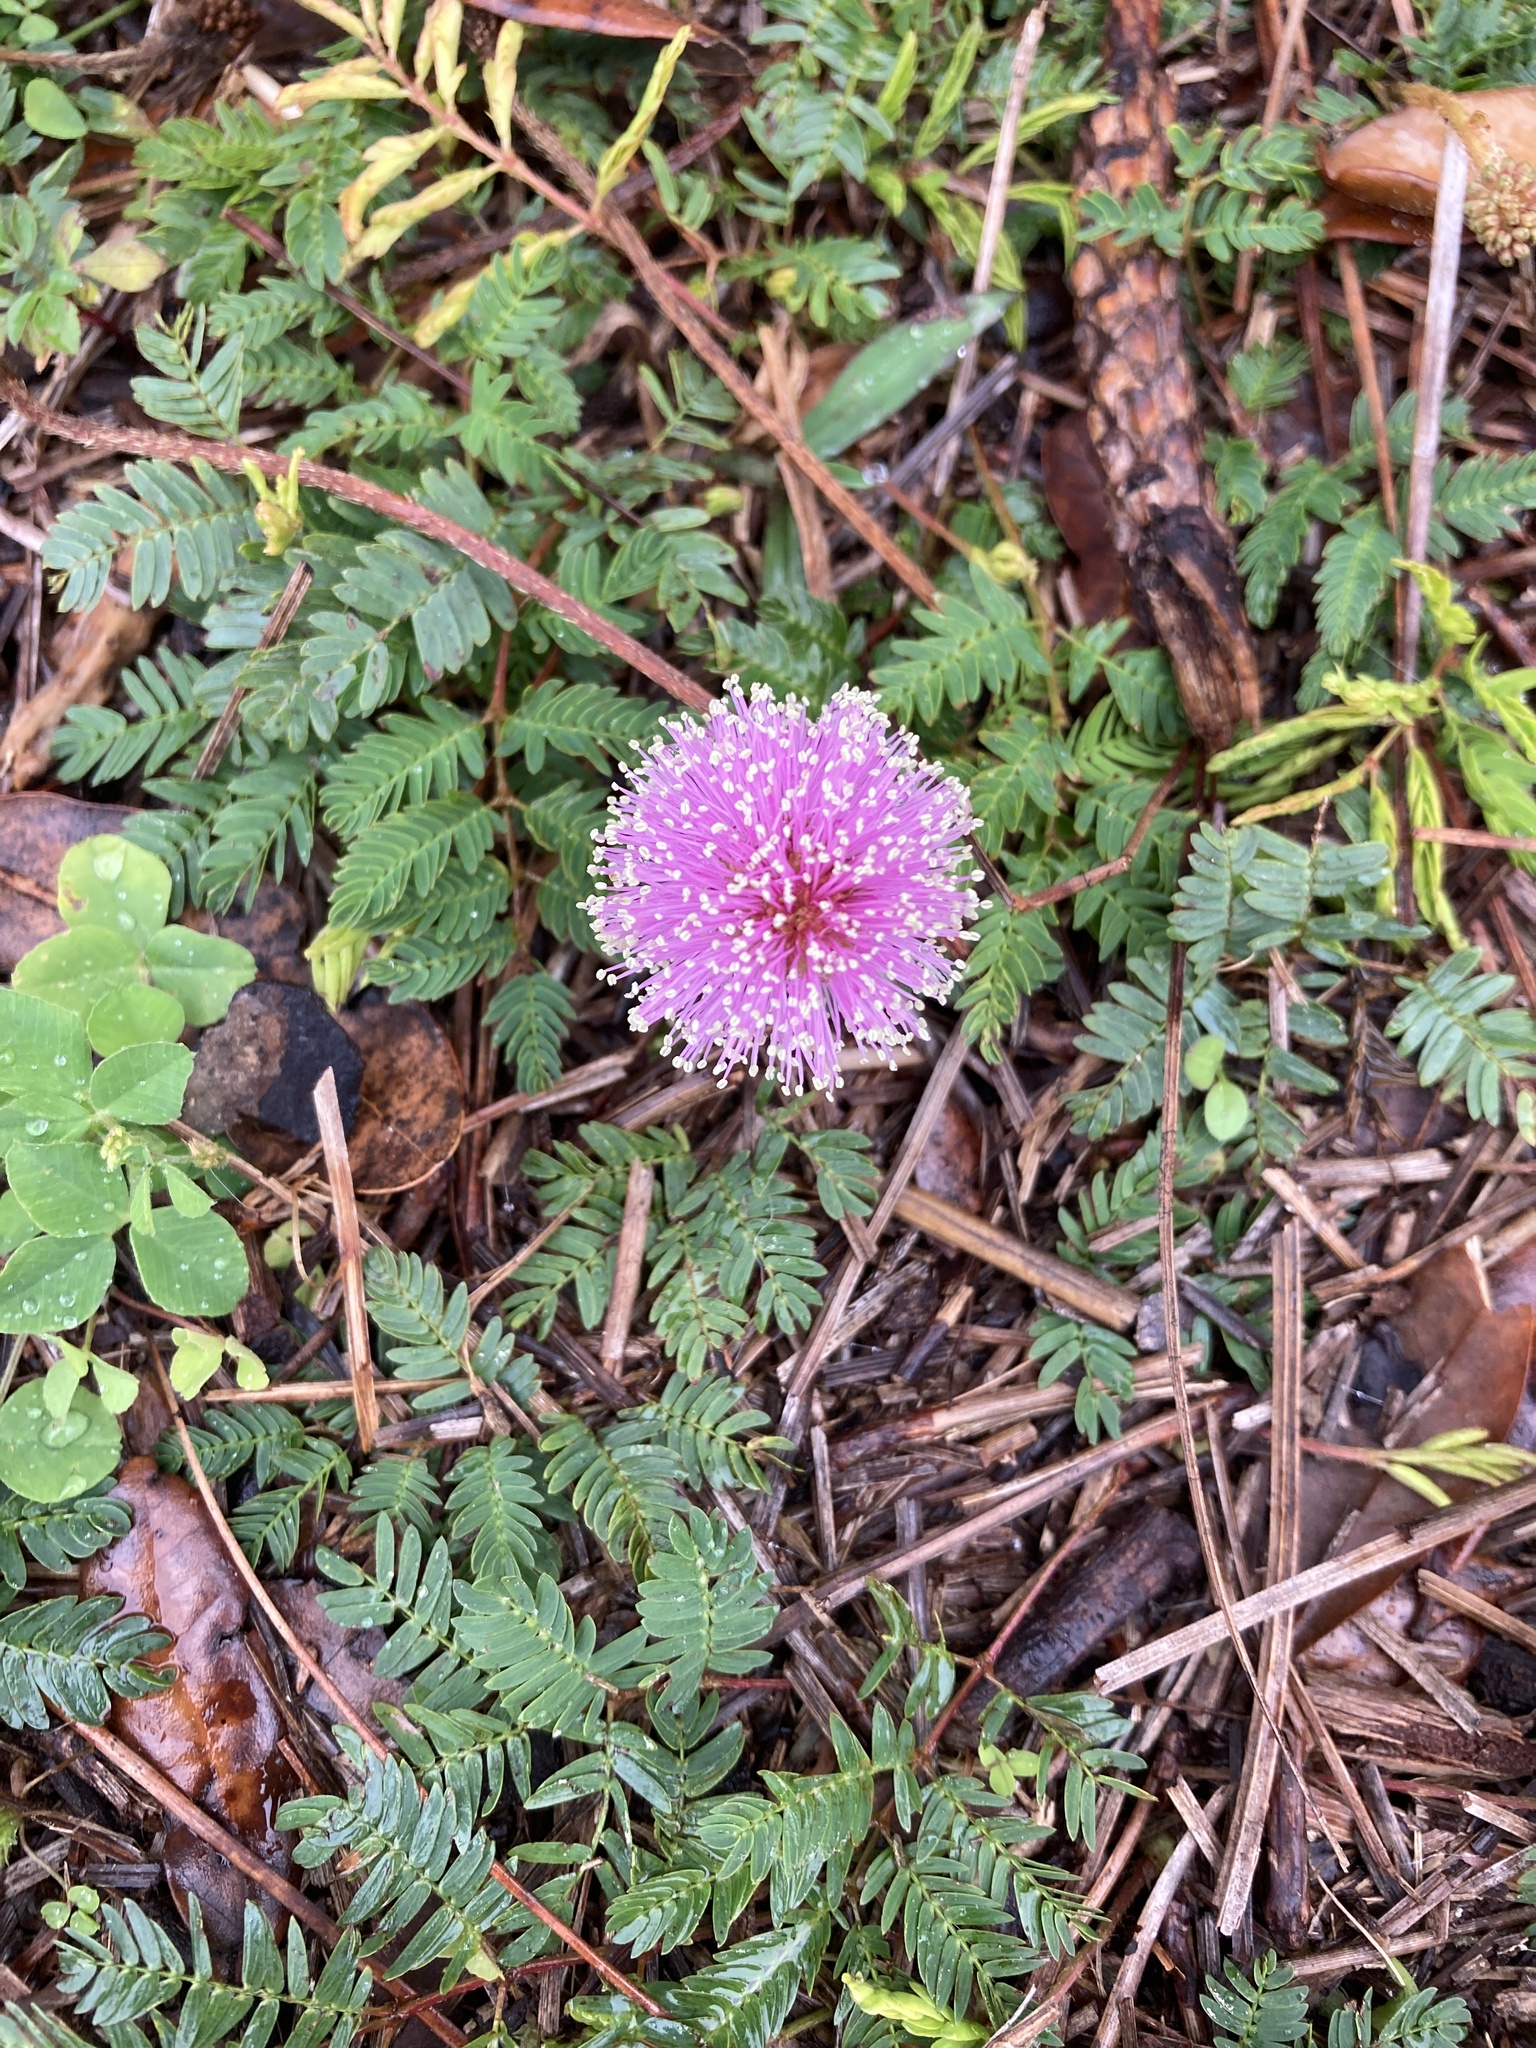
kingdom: Plantae
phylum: Tracheophyta
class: Magnoliopsida
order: Fabales
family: Fabaceae
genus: Mimosa
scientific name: Mimosa strigillosa
